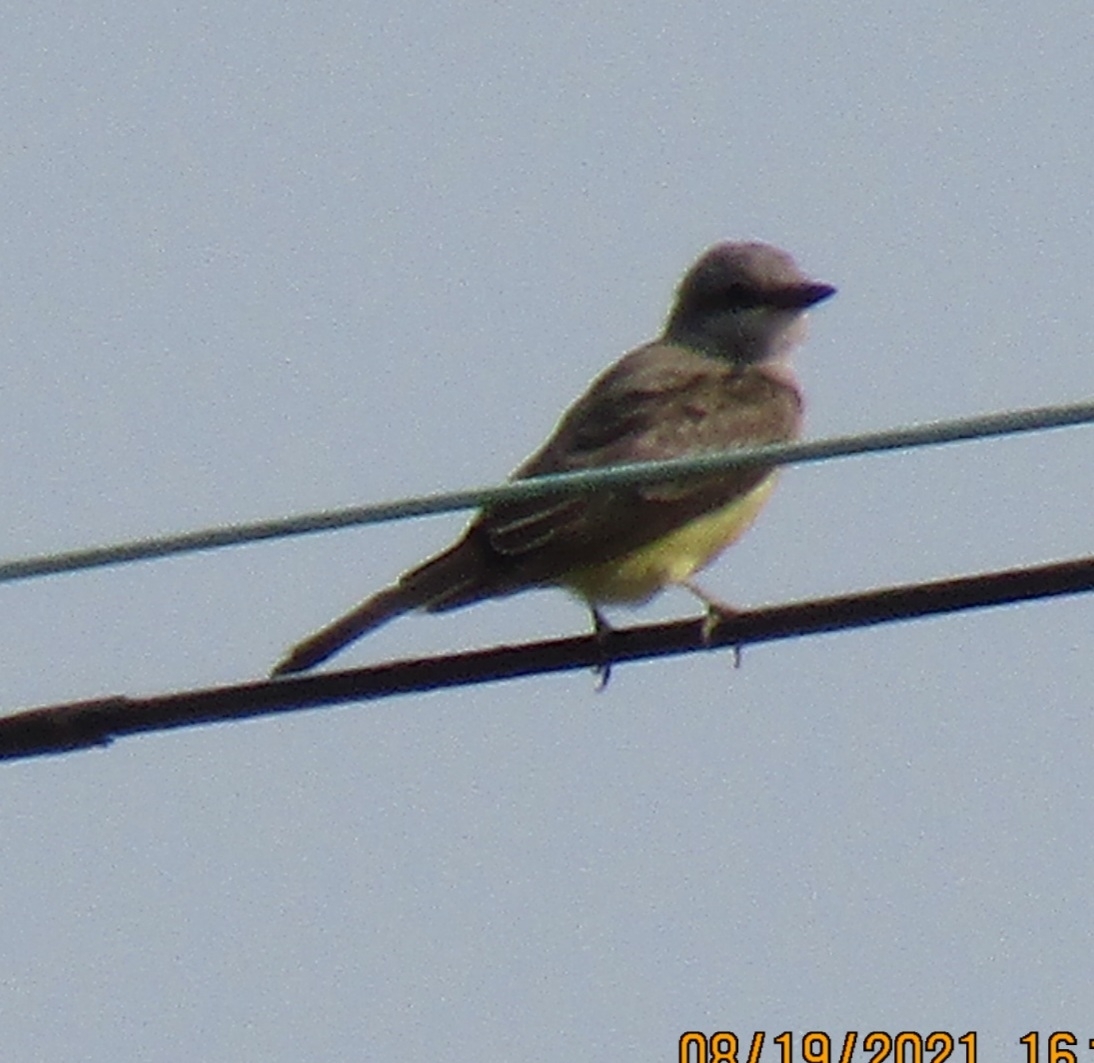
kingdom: Animalia
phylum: Chordata
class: Aves
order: Passeriformes
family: Tyrannidae
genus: Tyrannus
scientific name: Tyrannus verticalis
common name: Western kingbird
